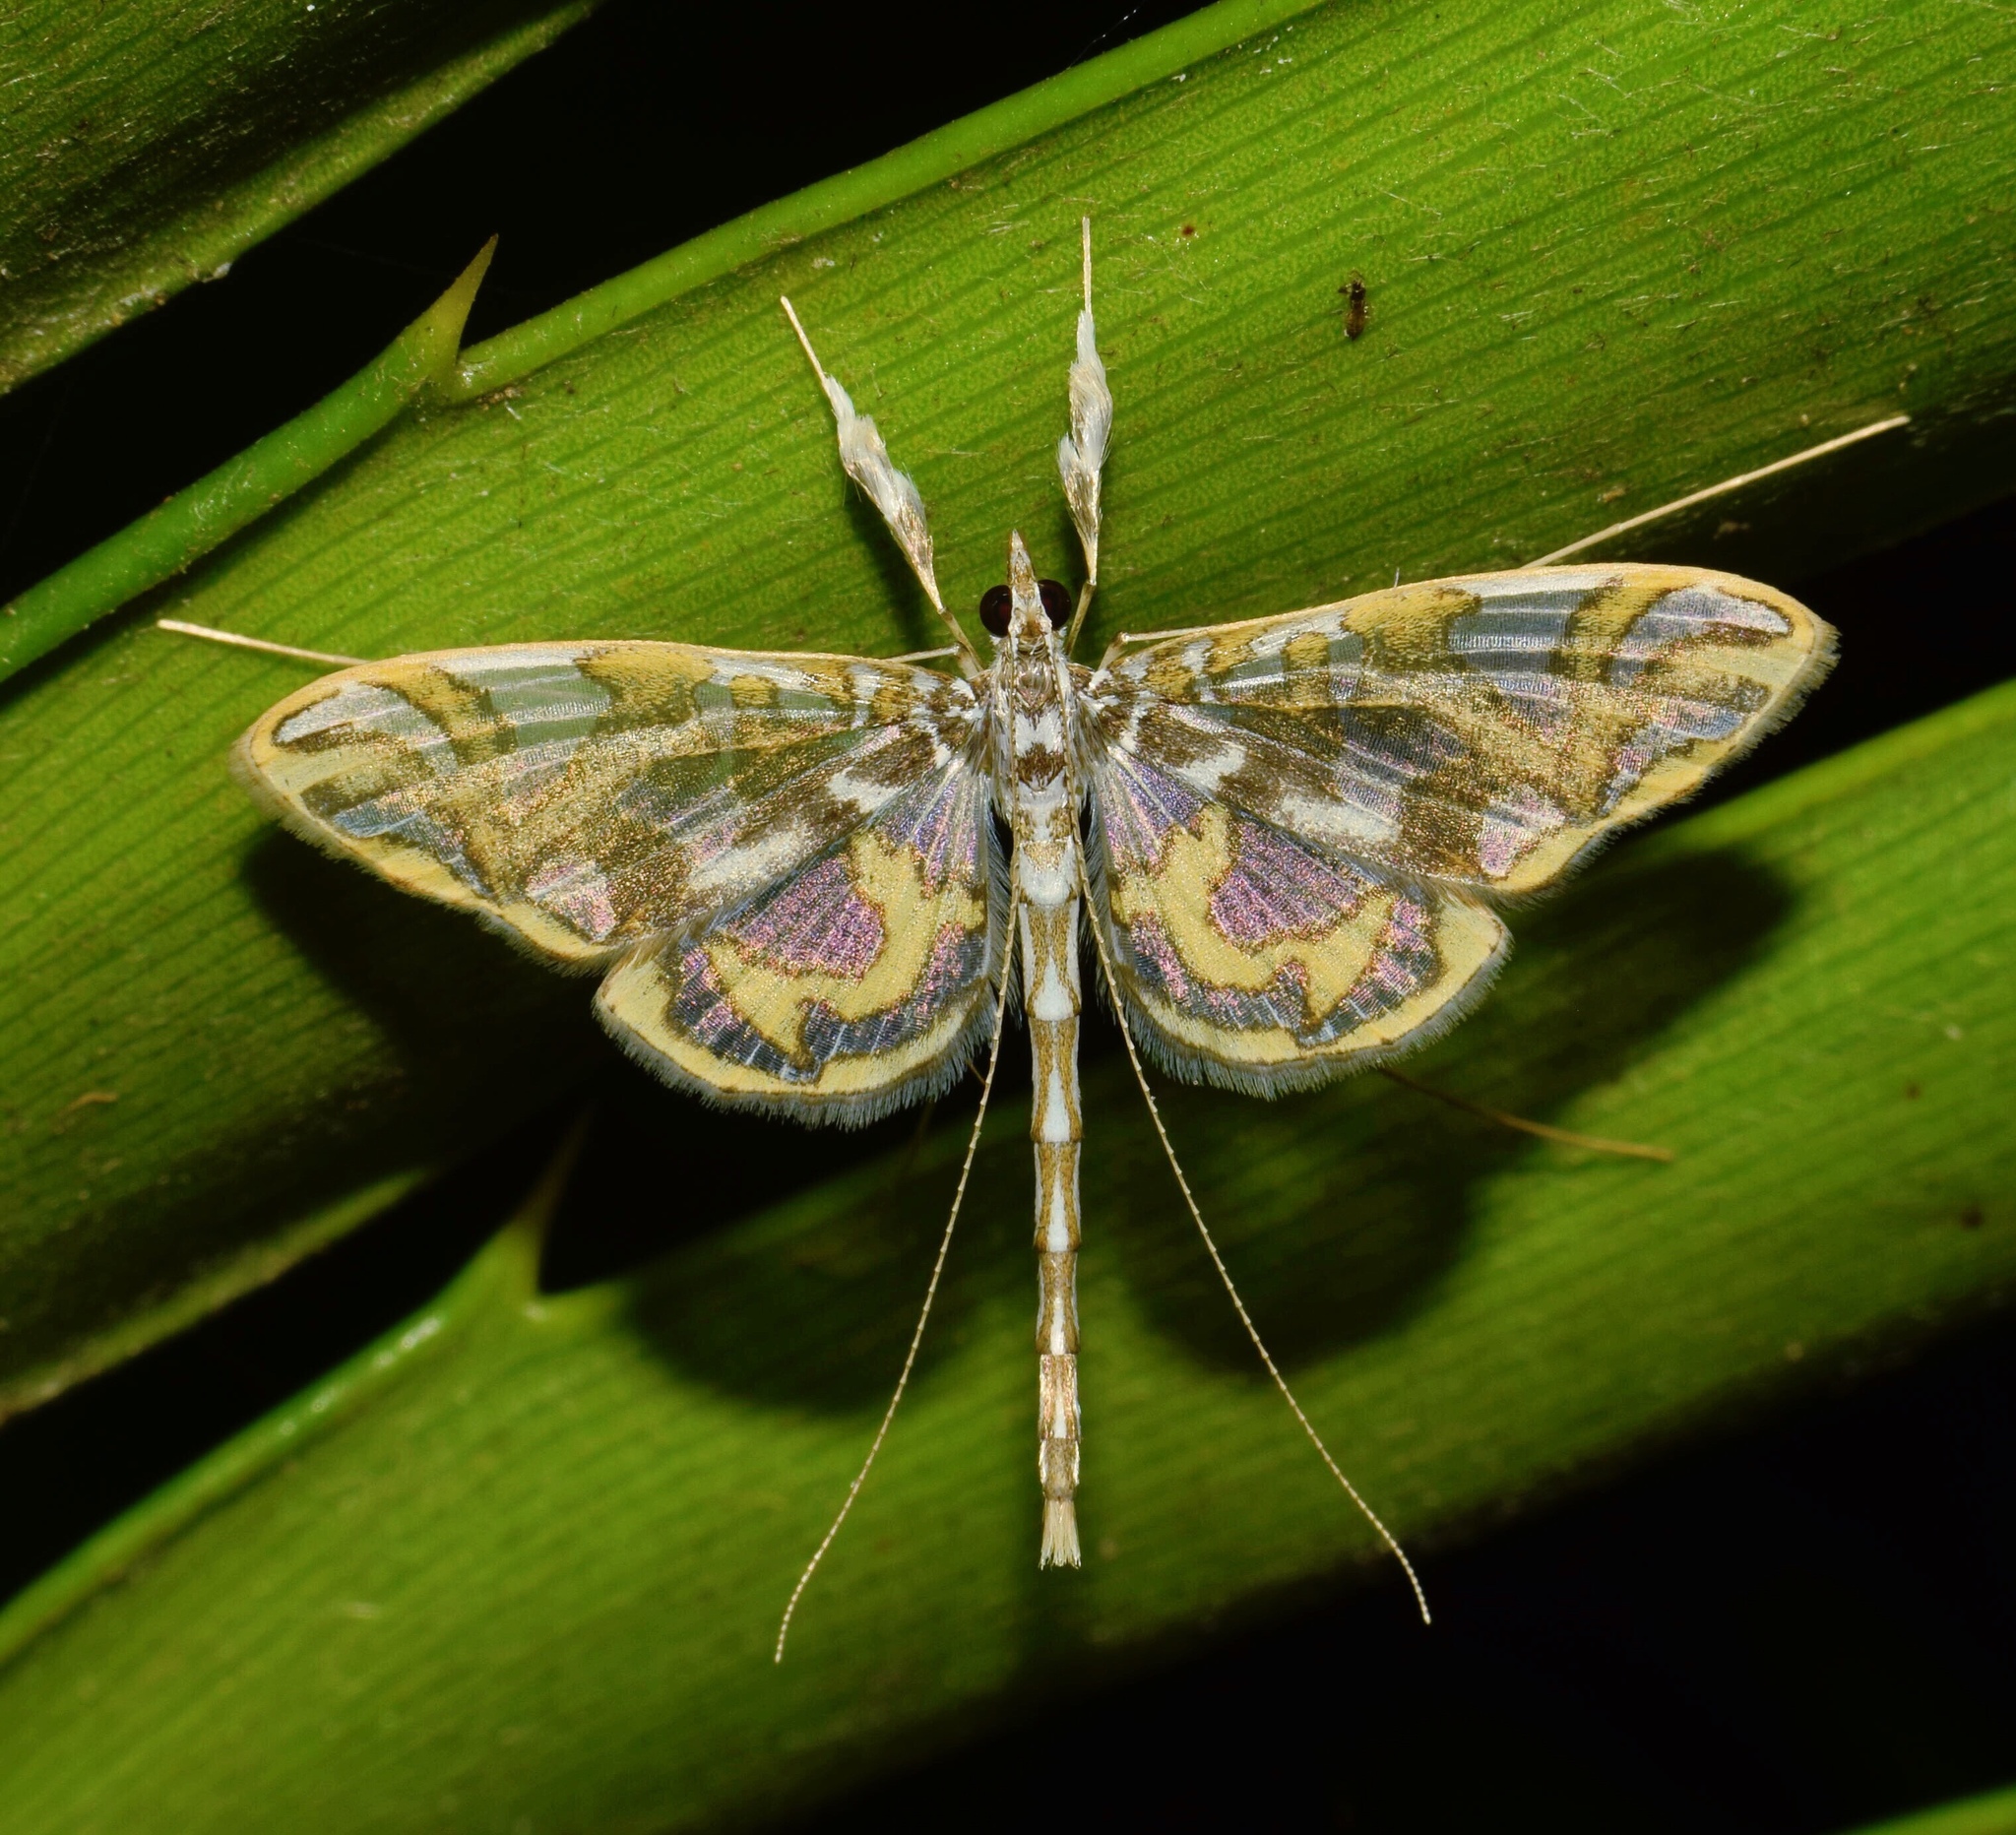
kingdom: Animalia
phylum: Arthropoda
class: Insecta
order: Lepidoptera
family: Crambidae
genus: Polythlipta
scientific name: Polythlipta annulifera
